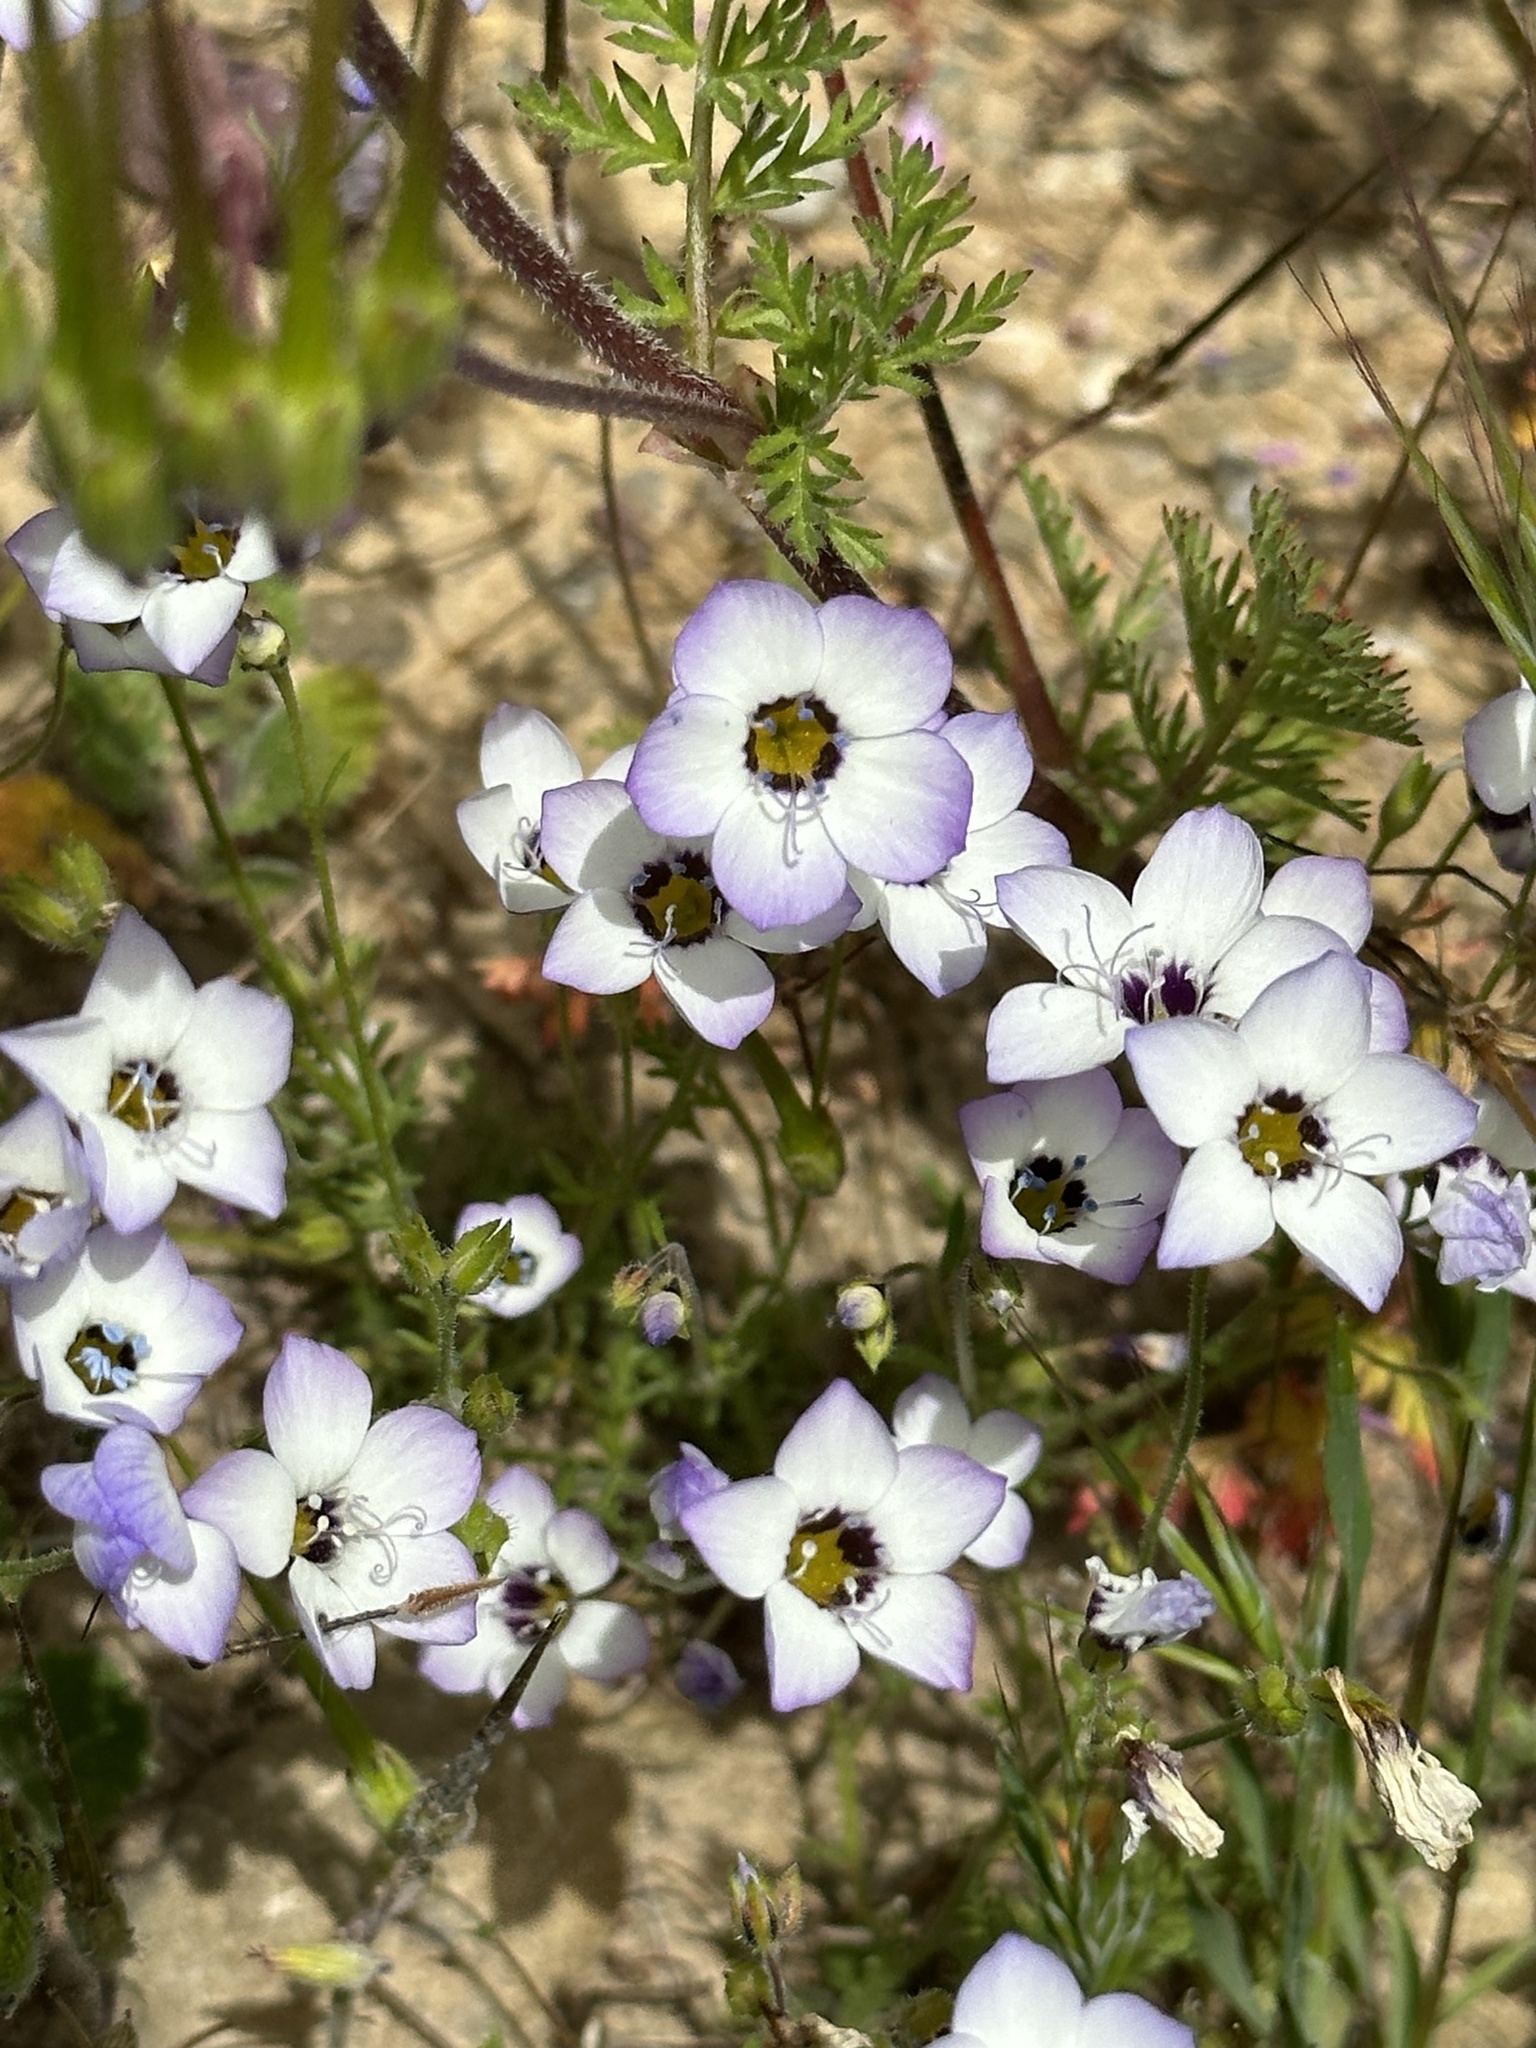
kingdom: Plantae
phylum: Tracheophyta
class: Magnoliopsida
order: Ericales
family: Polemoniaceae
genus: Gilia
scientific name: Gilia tricolor
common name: Bird's-eyes
